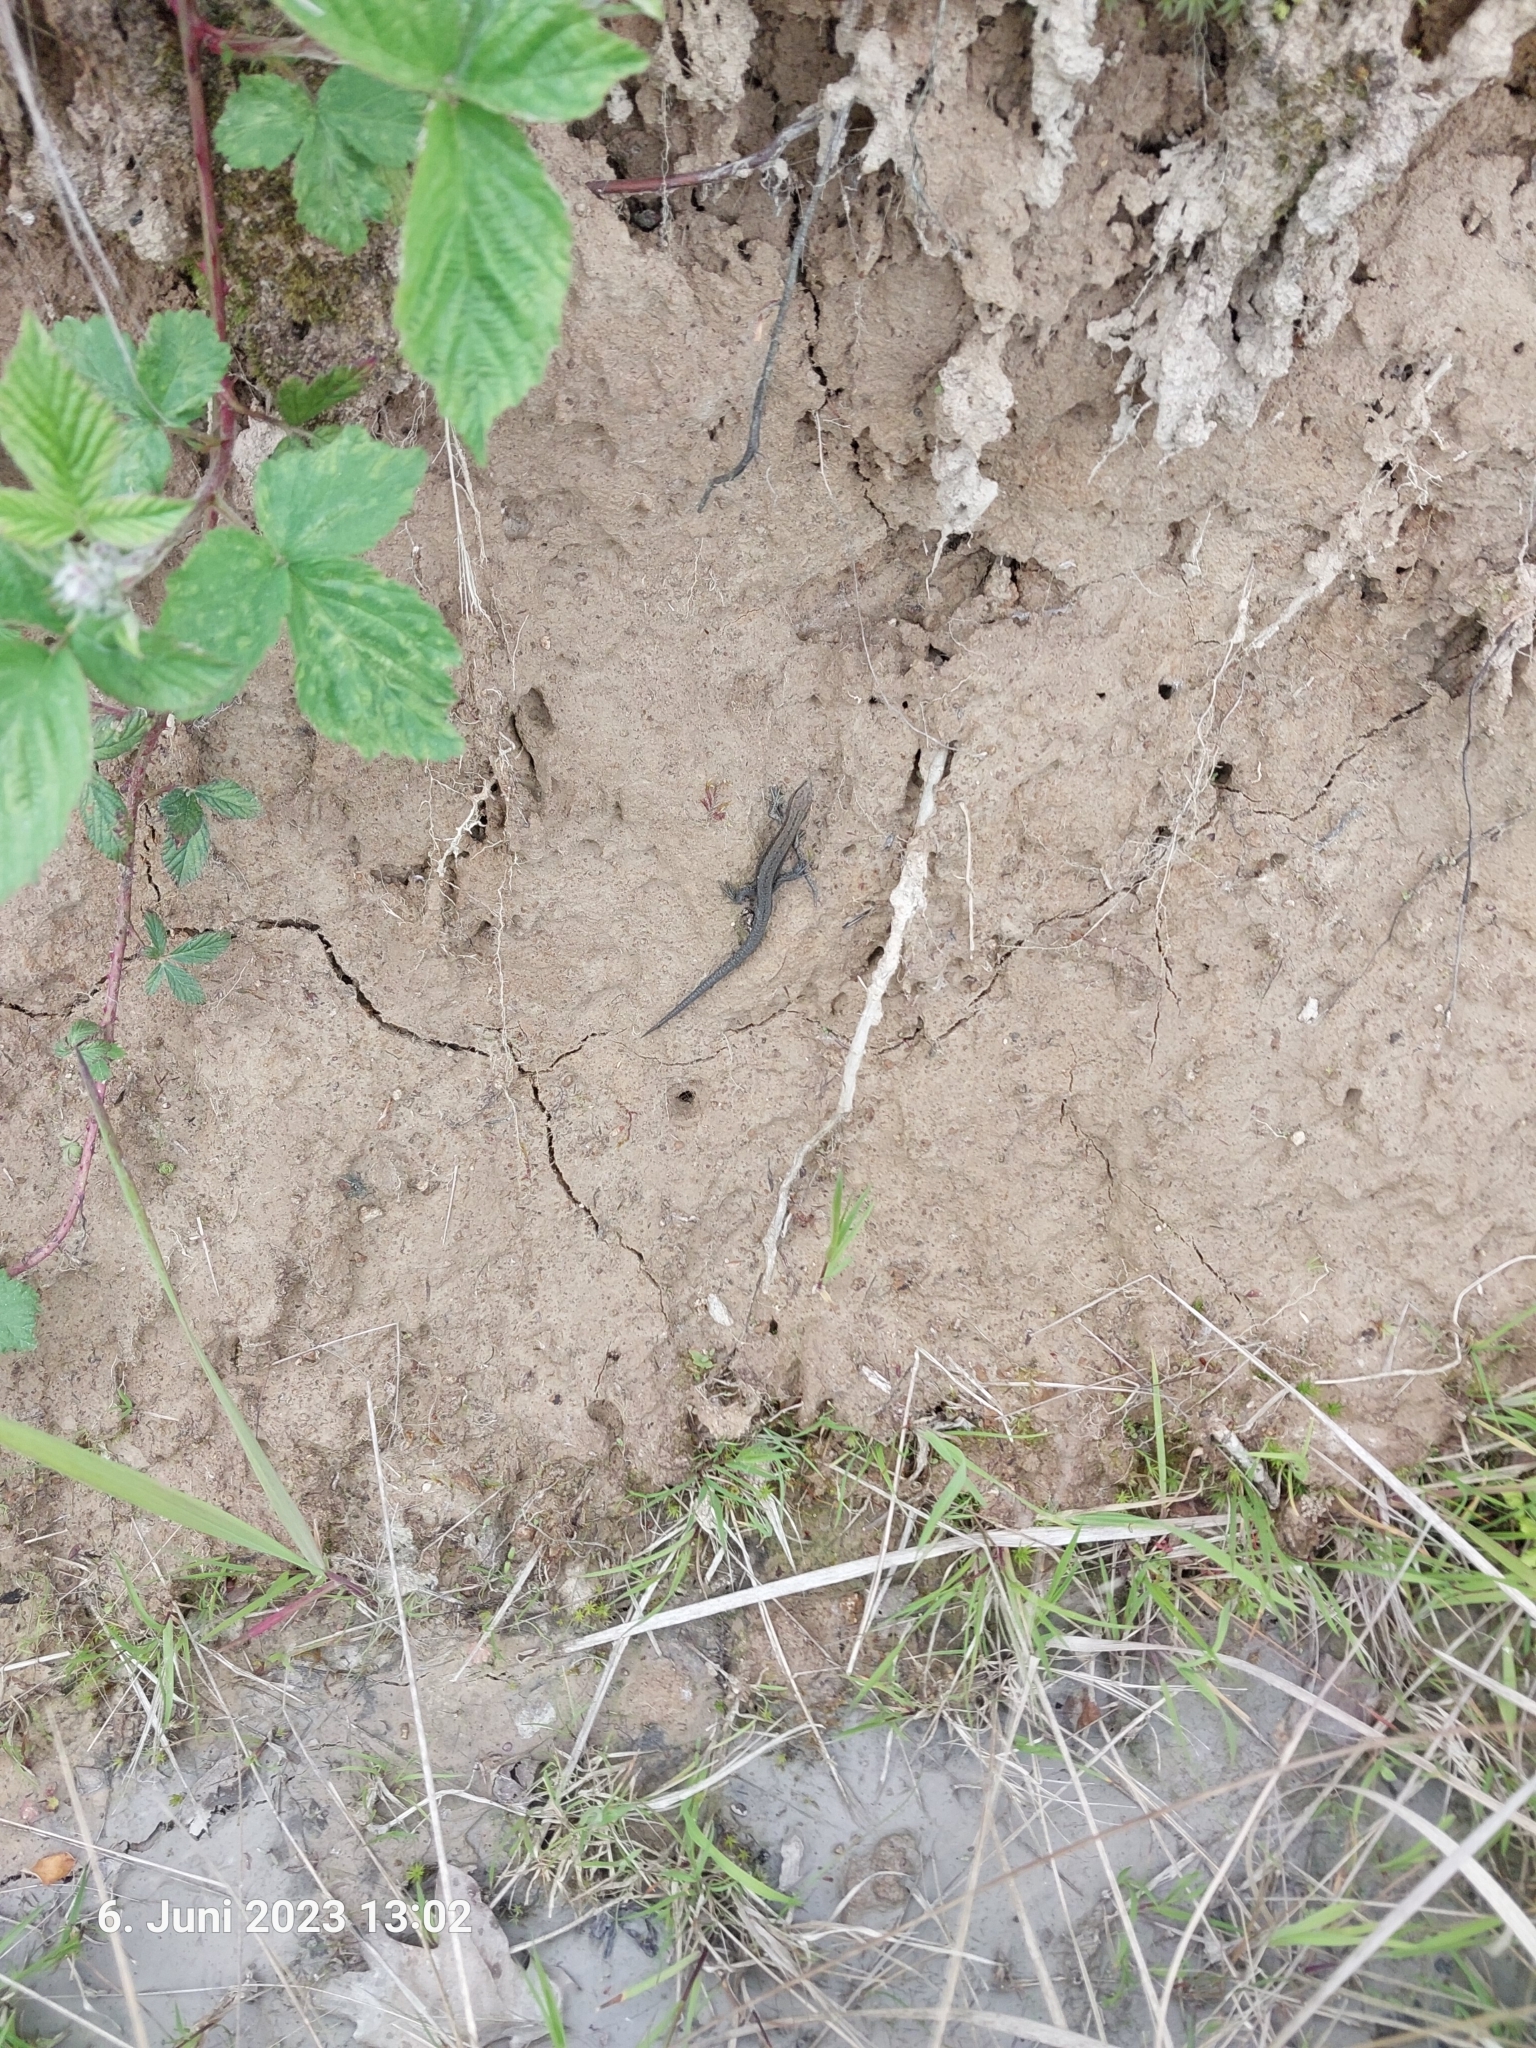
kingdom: Animalia
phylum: Chordata
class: Squamata
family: Lacertidae
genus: Zootoca
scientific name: Zootoca vivipara
